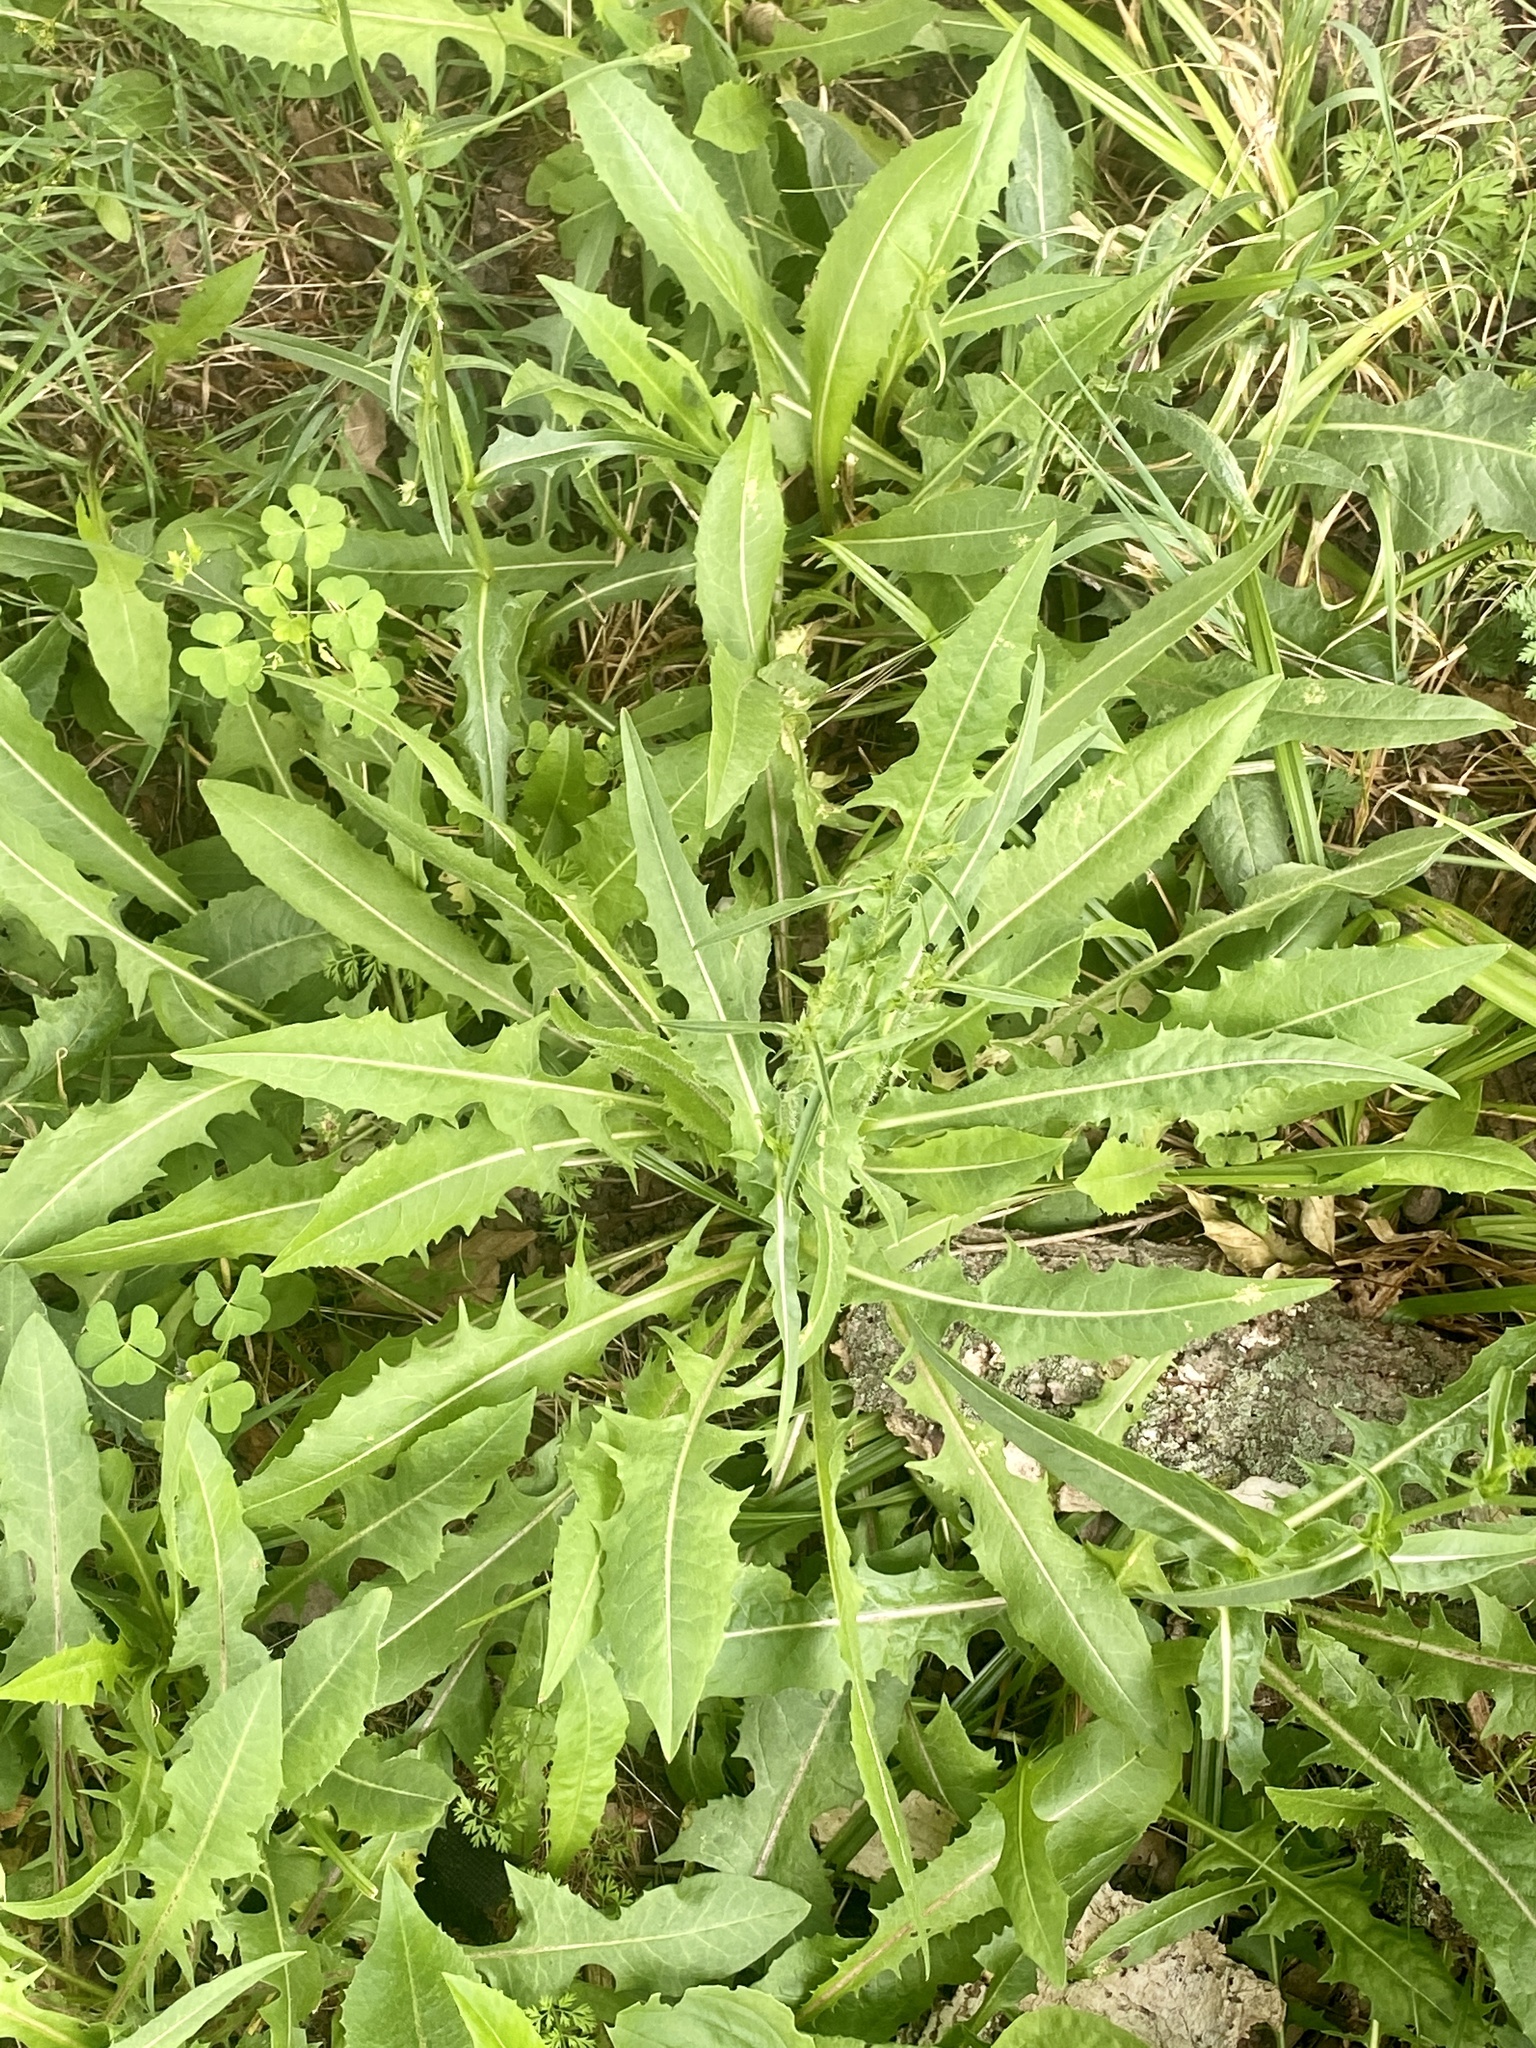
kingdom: Plantae
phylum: Tracheophyta
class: Magnoliopsida
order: Asterales
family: Asteraceae
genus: Cichorium
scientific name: Cichorium intybus
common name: Chicory
